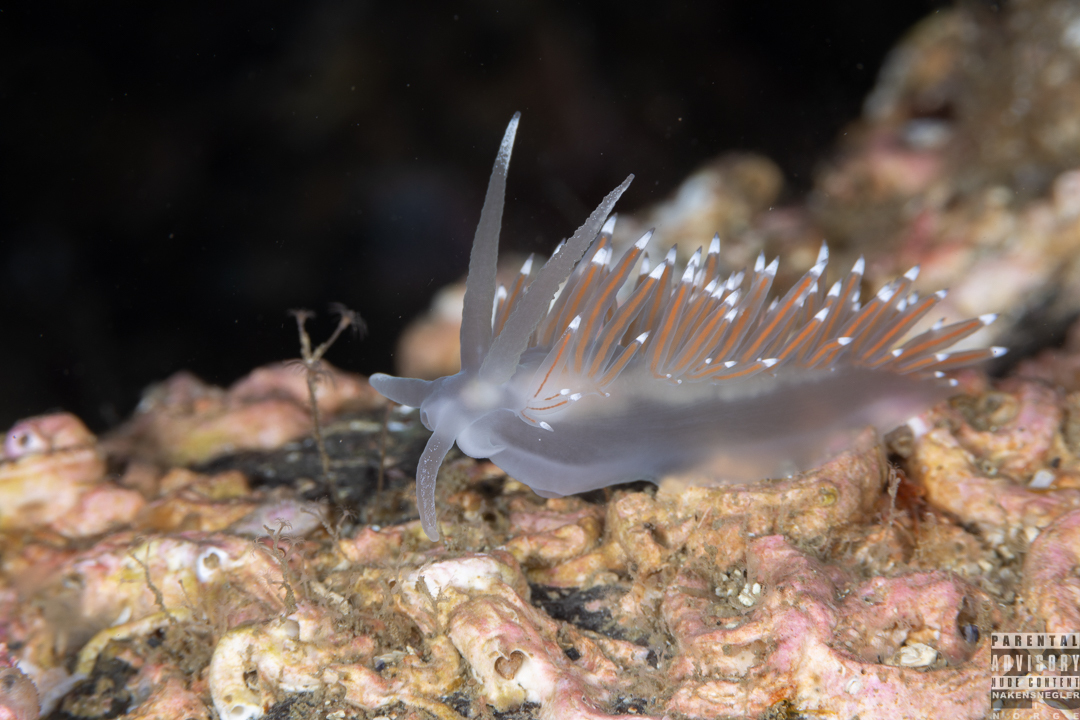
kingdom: Animalia
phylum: Mollusca
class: Gastropoda
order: Nudibranchia
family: Coryphellidae
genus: Coryphella
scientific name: Coryphella browni
